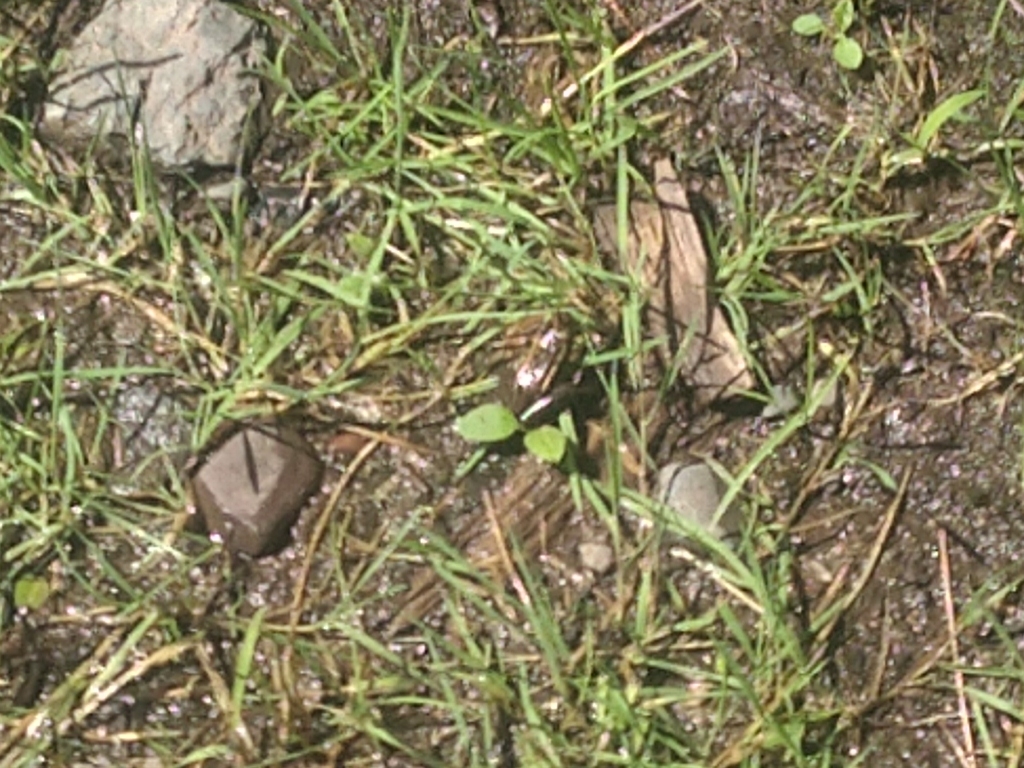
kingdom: Animalia
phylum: Chordata
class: Amphibia
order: Anura
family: Ranidae
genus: Lithobates
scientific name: Lithobates palustris
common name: Pickerel frog
